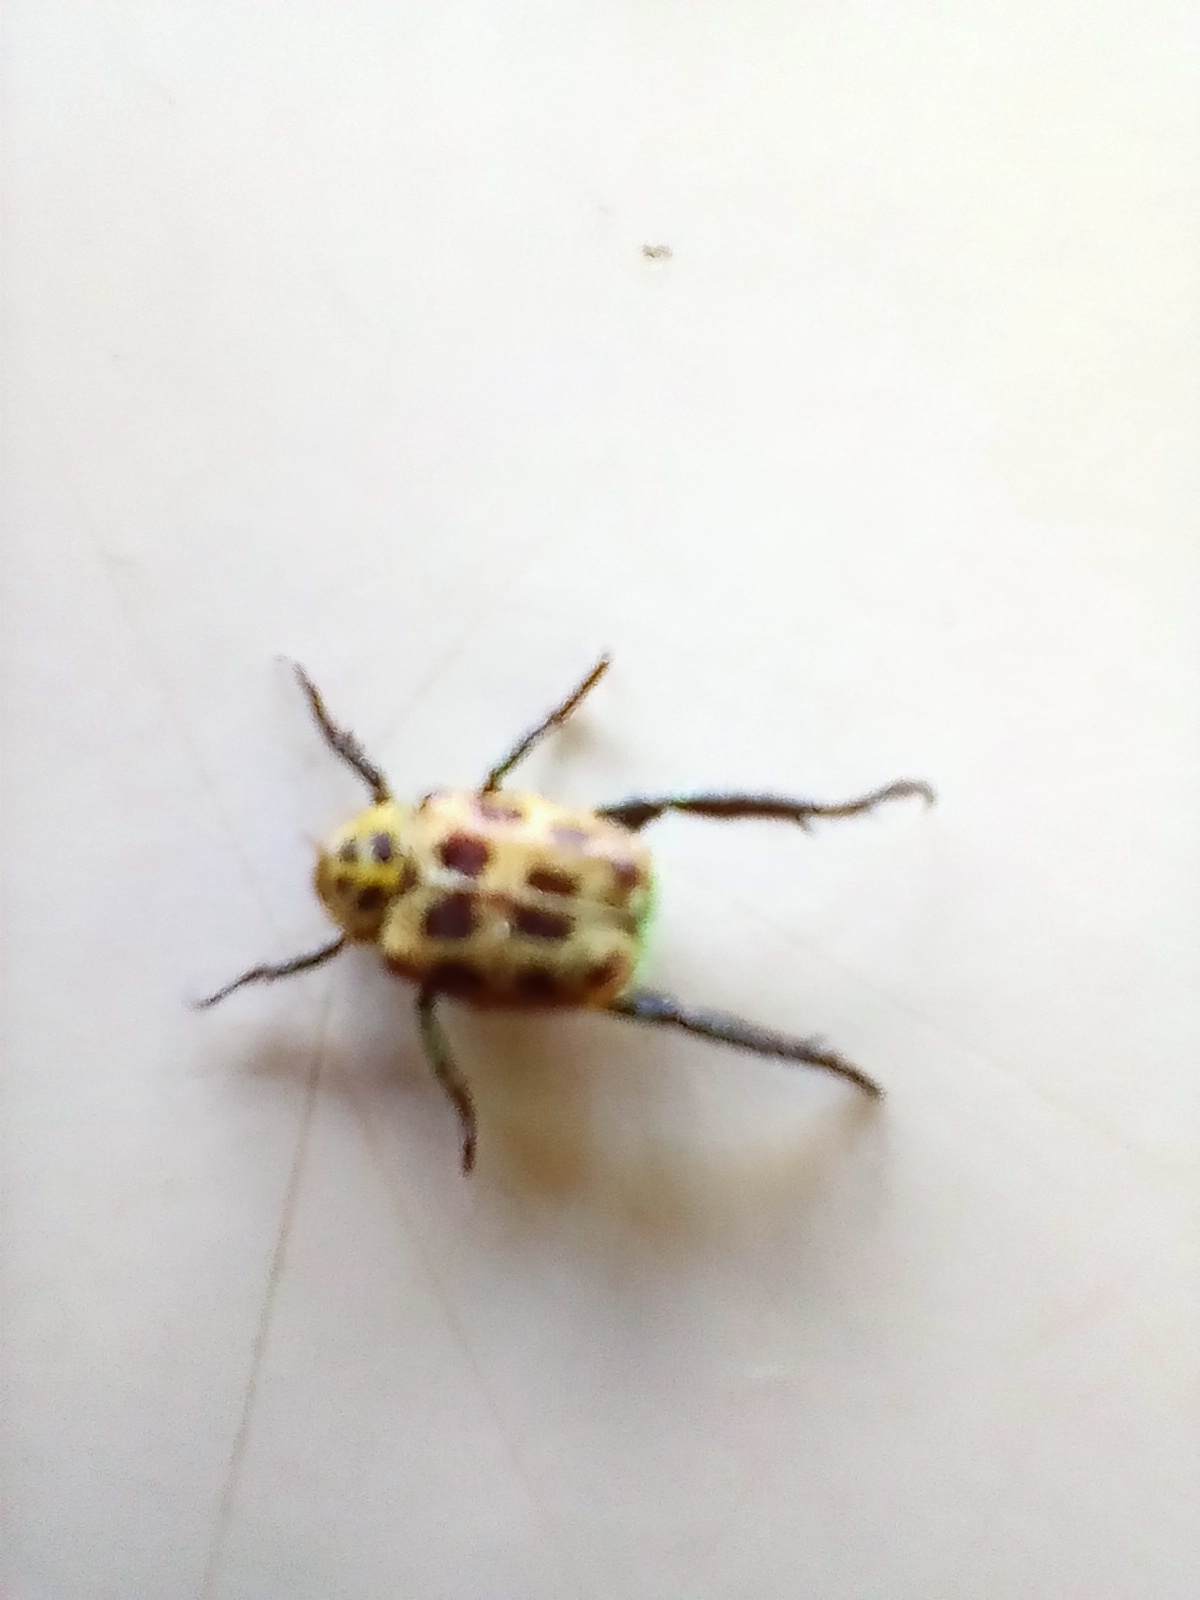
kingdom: Animalia
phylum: Arthropoda
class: Insecta
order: Coleoptera
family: Scarabaeidae
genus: Hoplia
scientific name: Hoplia aureola
